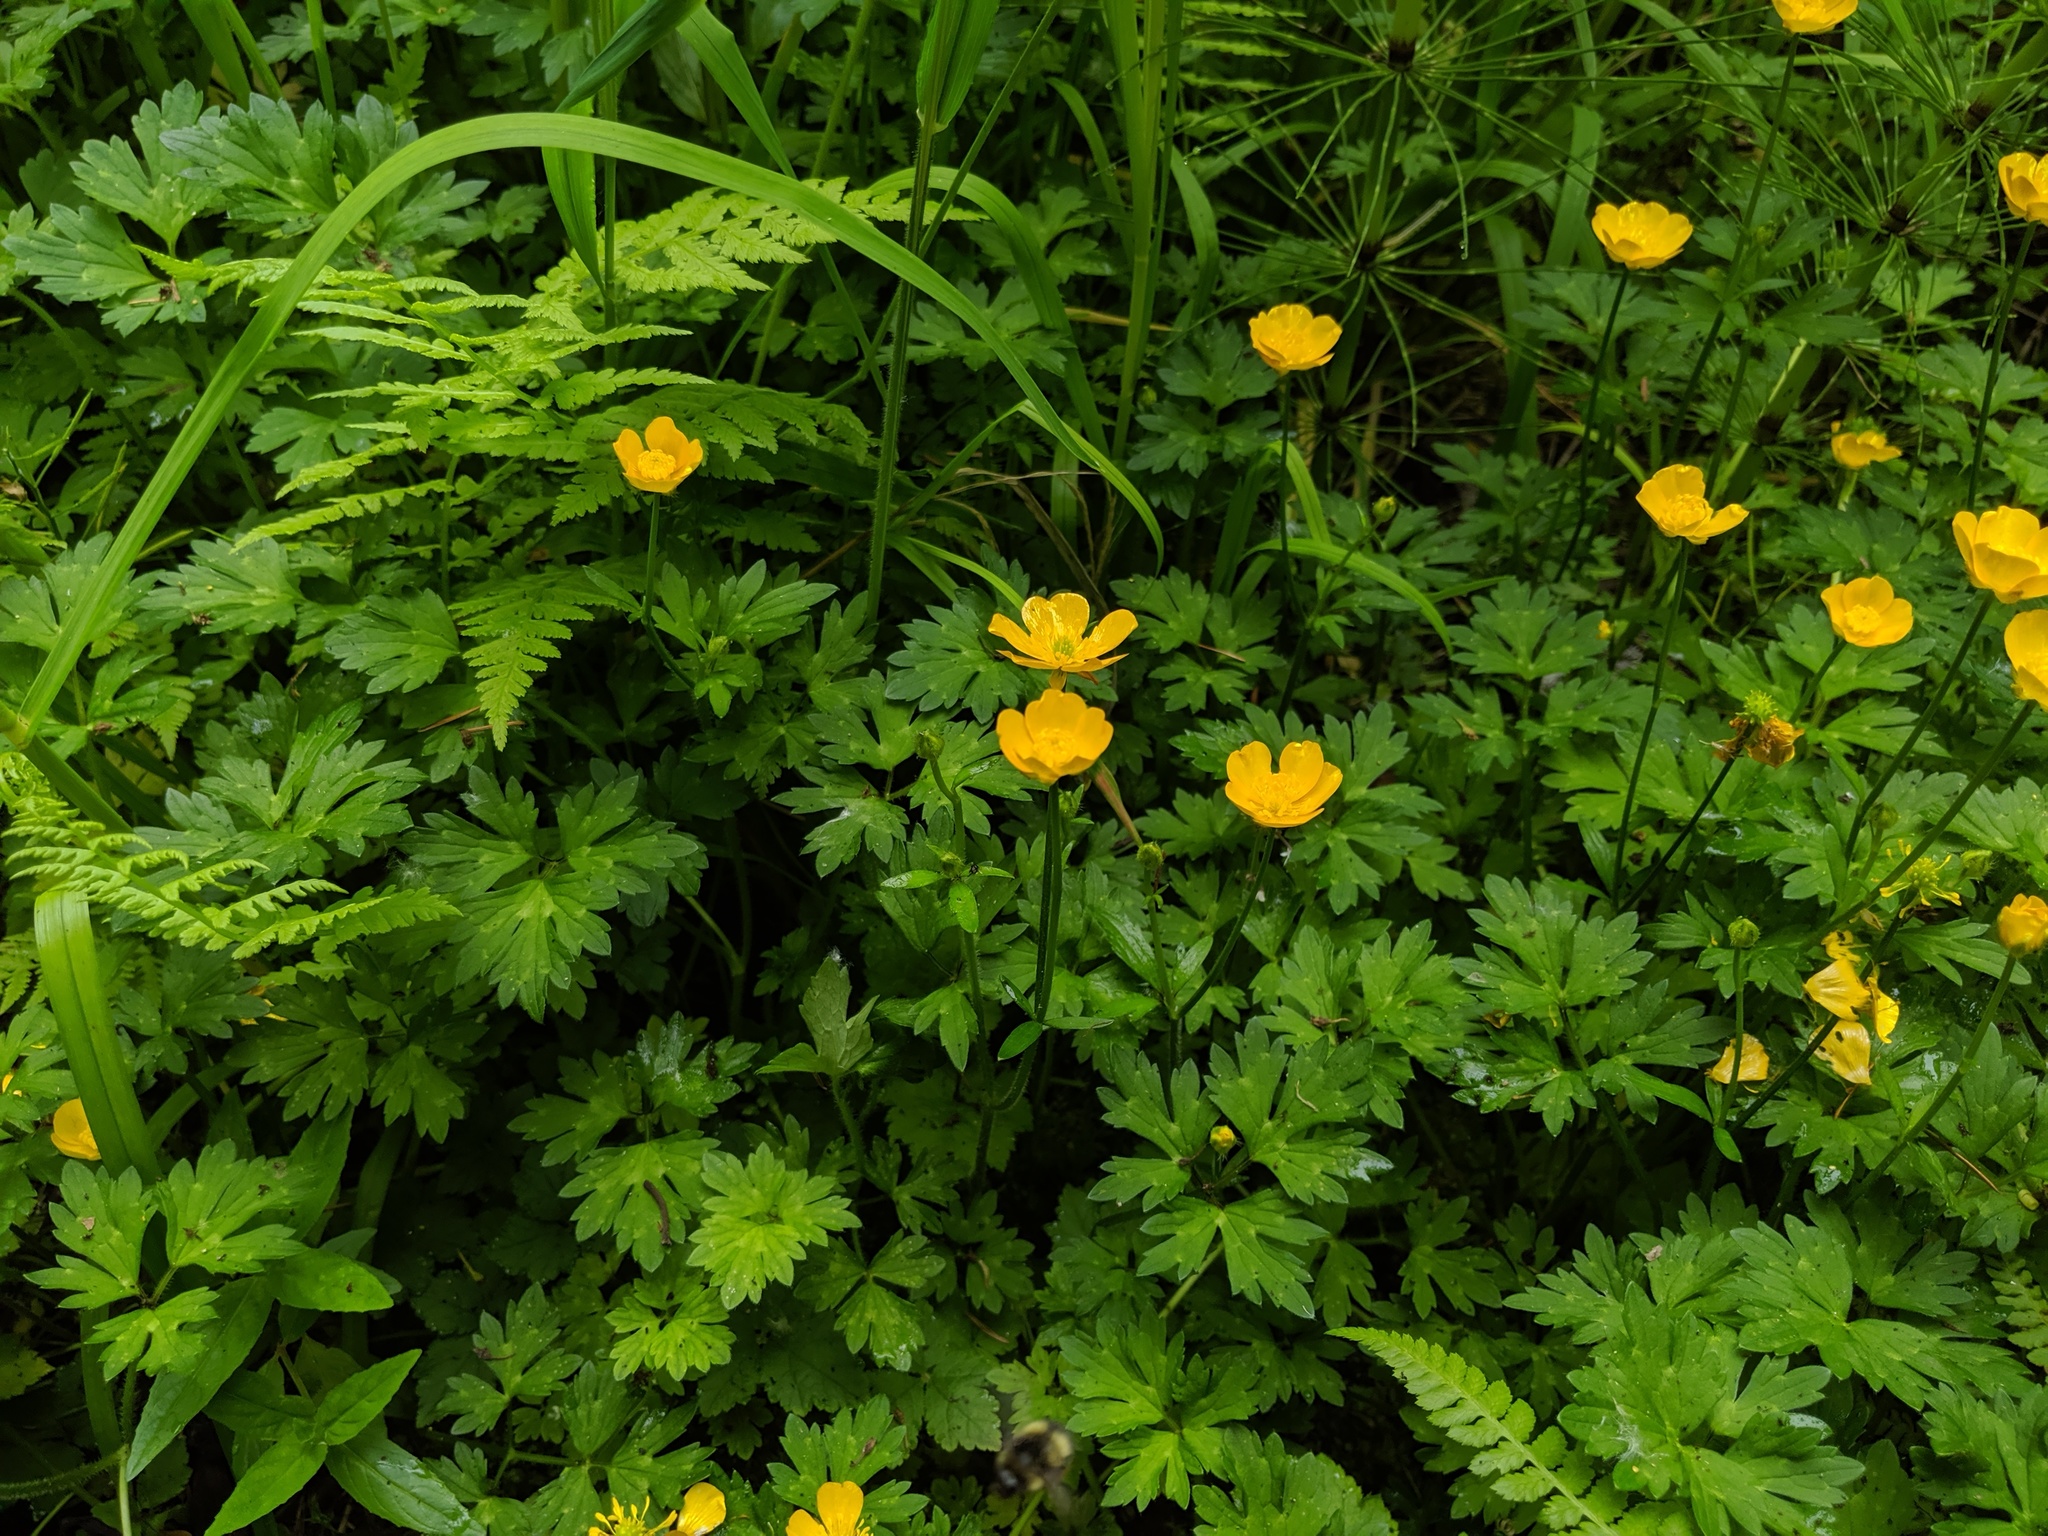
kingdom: Plantae
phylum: Tracheophyta
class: Magnoliopsida
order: Ranunculales
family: Ranunculaceae
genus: Ranunculus
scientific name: Ranunculus repens
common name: Creeping buttercup
